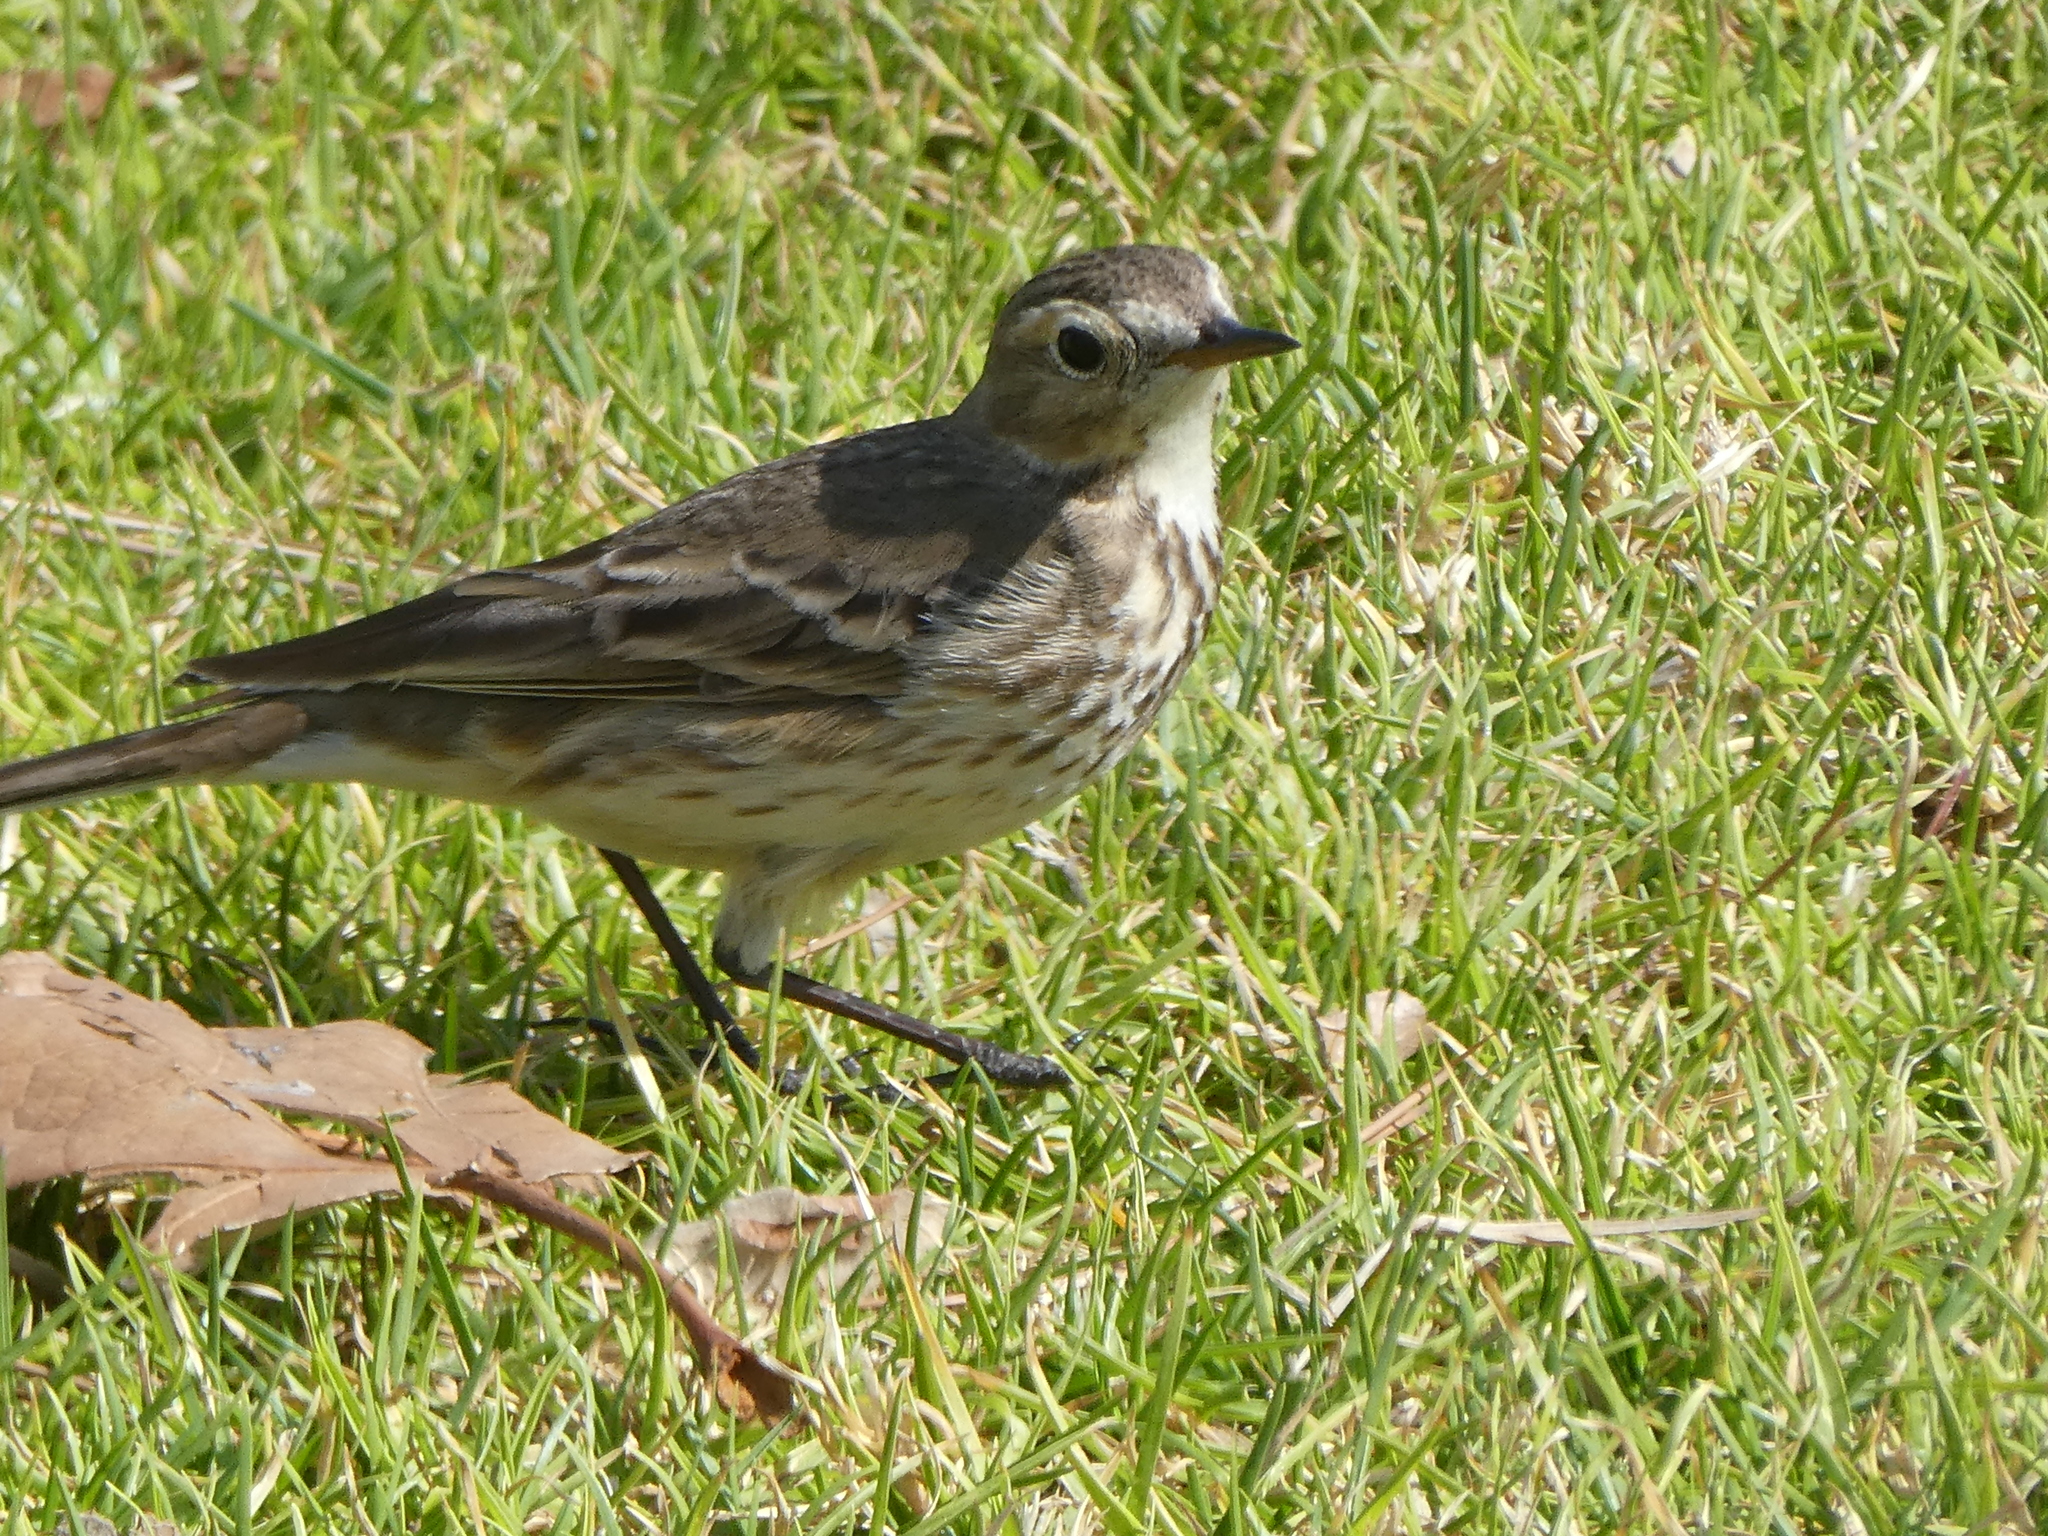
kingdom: Animalia
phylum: Chordata
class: Aves
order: Passeriformes
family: Motacillidae
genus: Anthus
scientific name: Anthus rubescens
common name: Buff-bellied pipit
